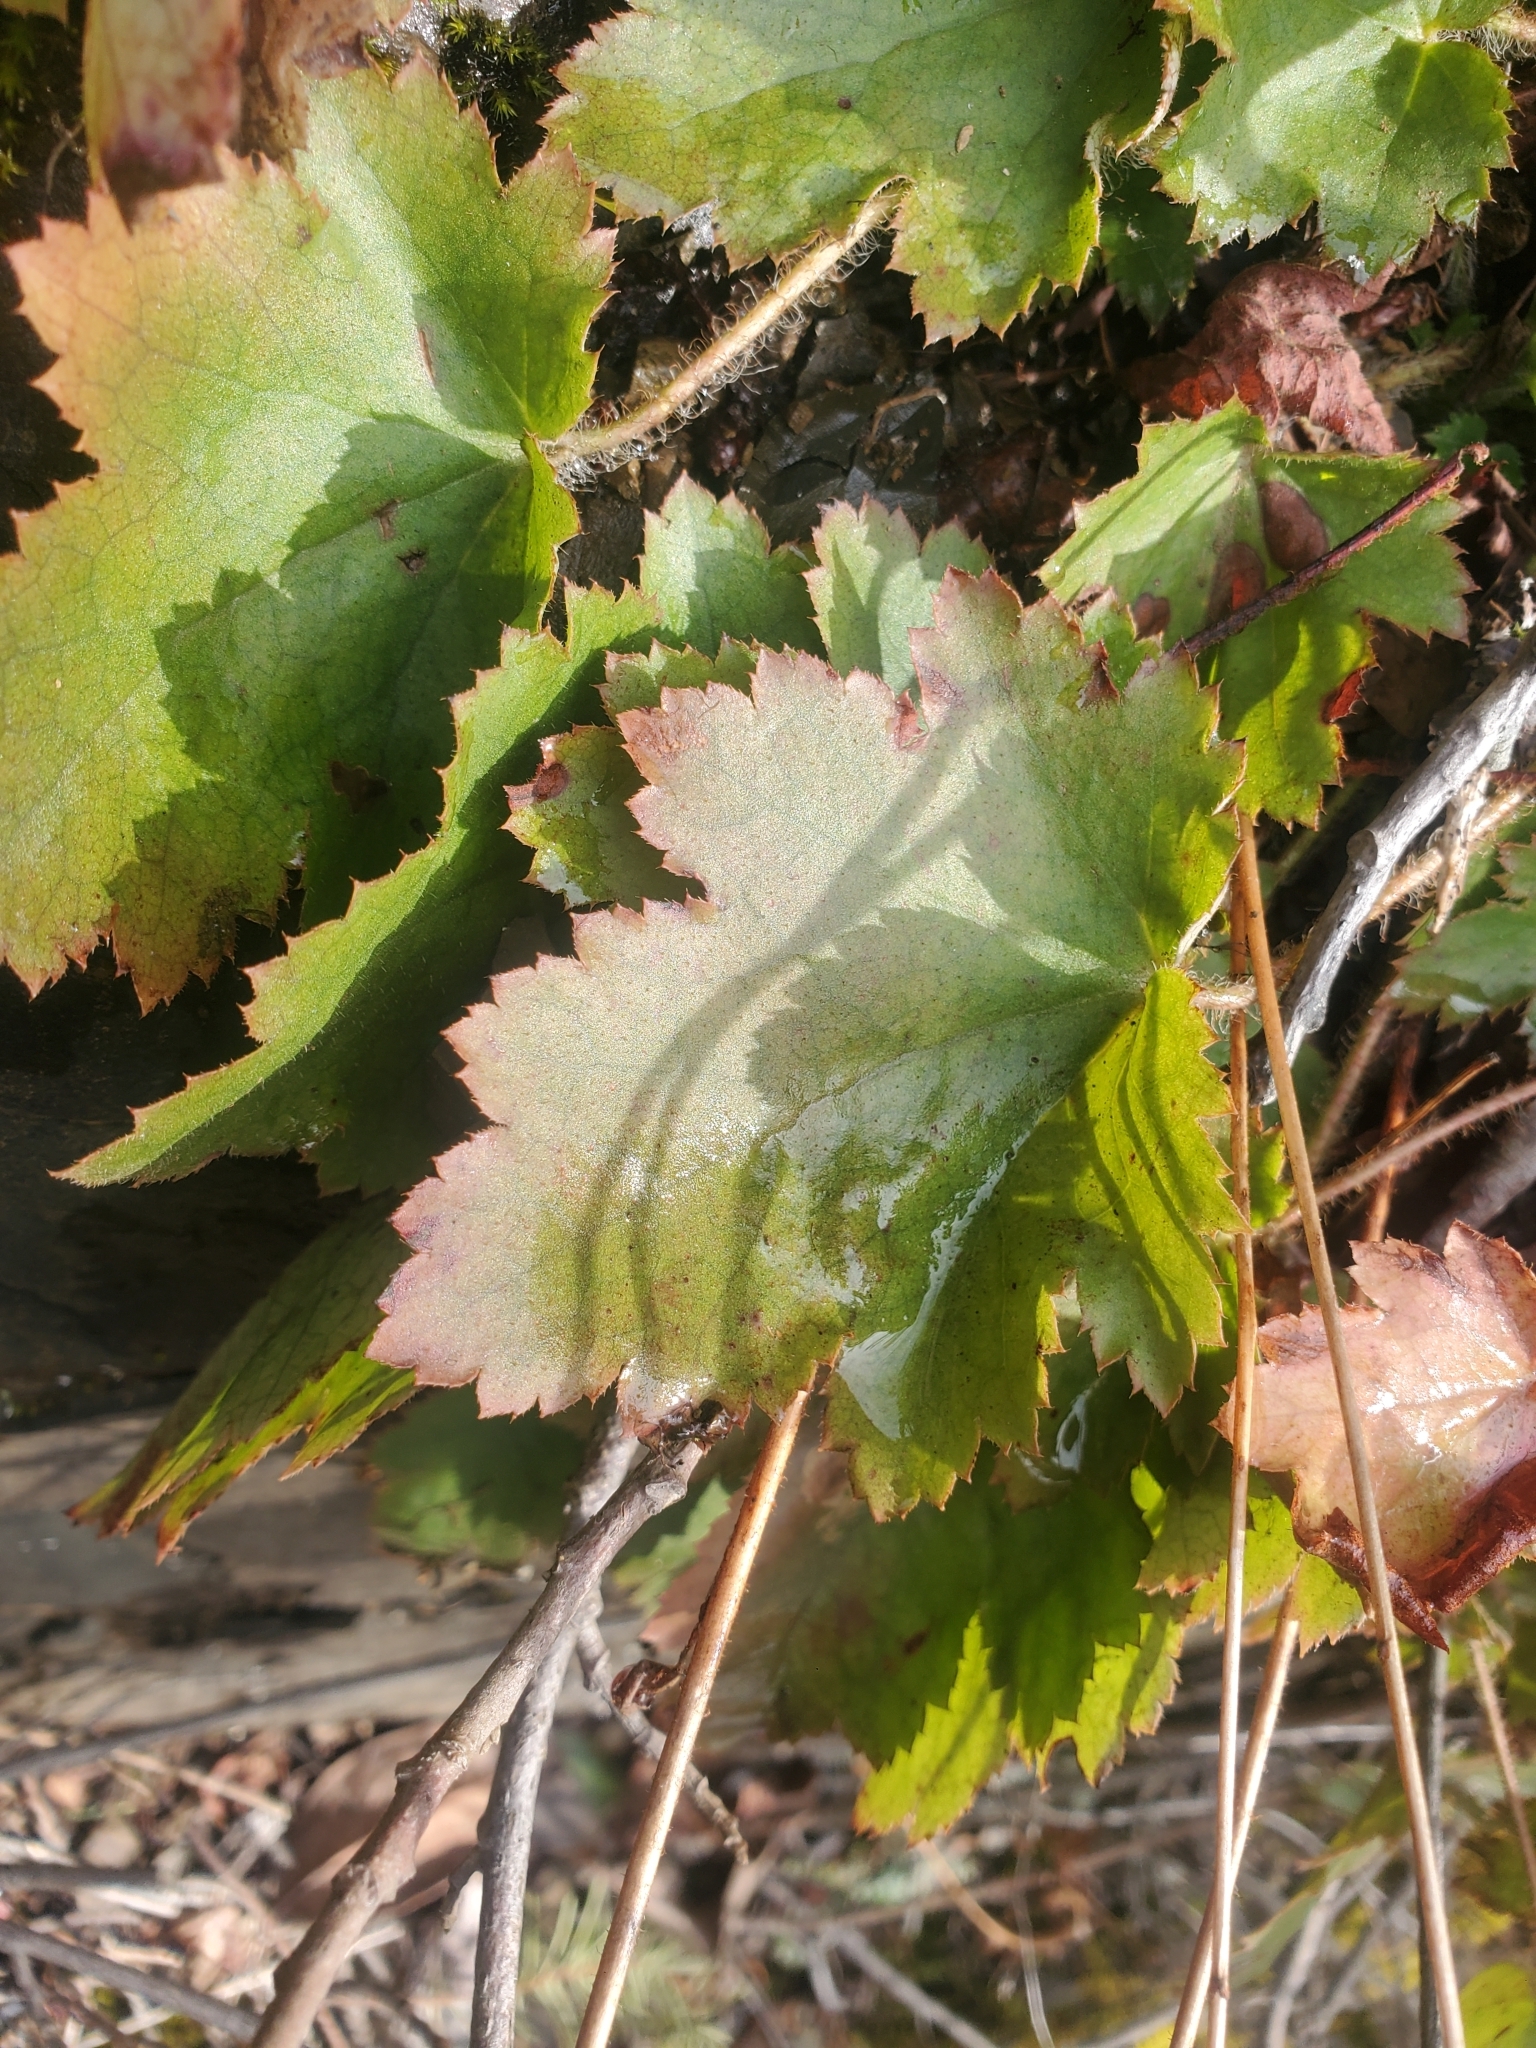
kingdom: Plantae
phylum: Tracheophyta
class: Magnoliopsida
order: Saxifragales
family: Saxifragaceae
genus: Heuchera
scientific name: Heuchera micrantha
